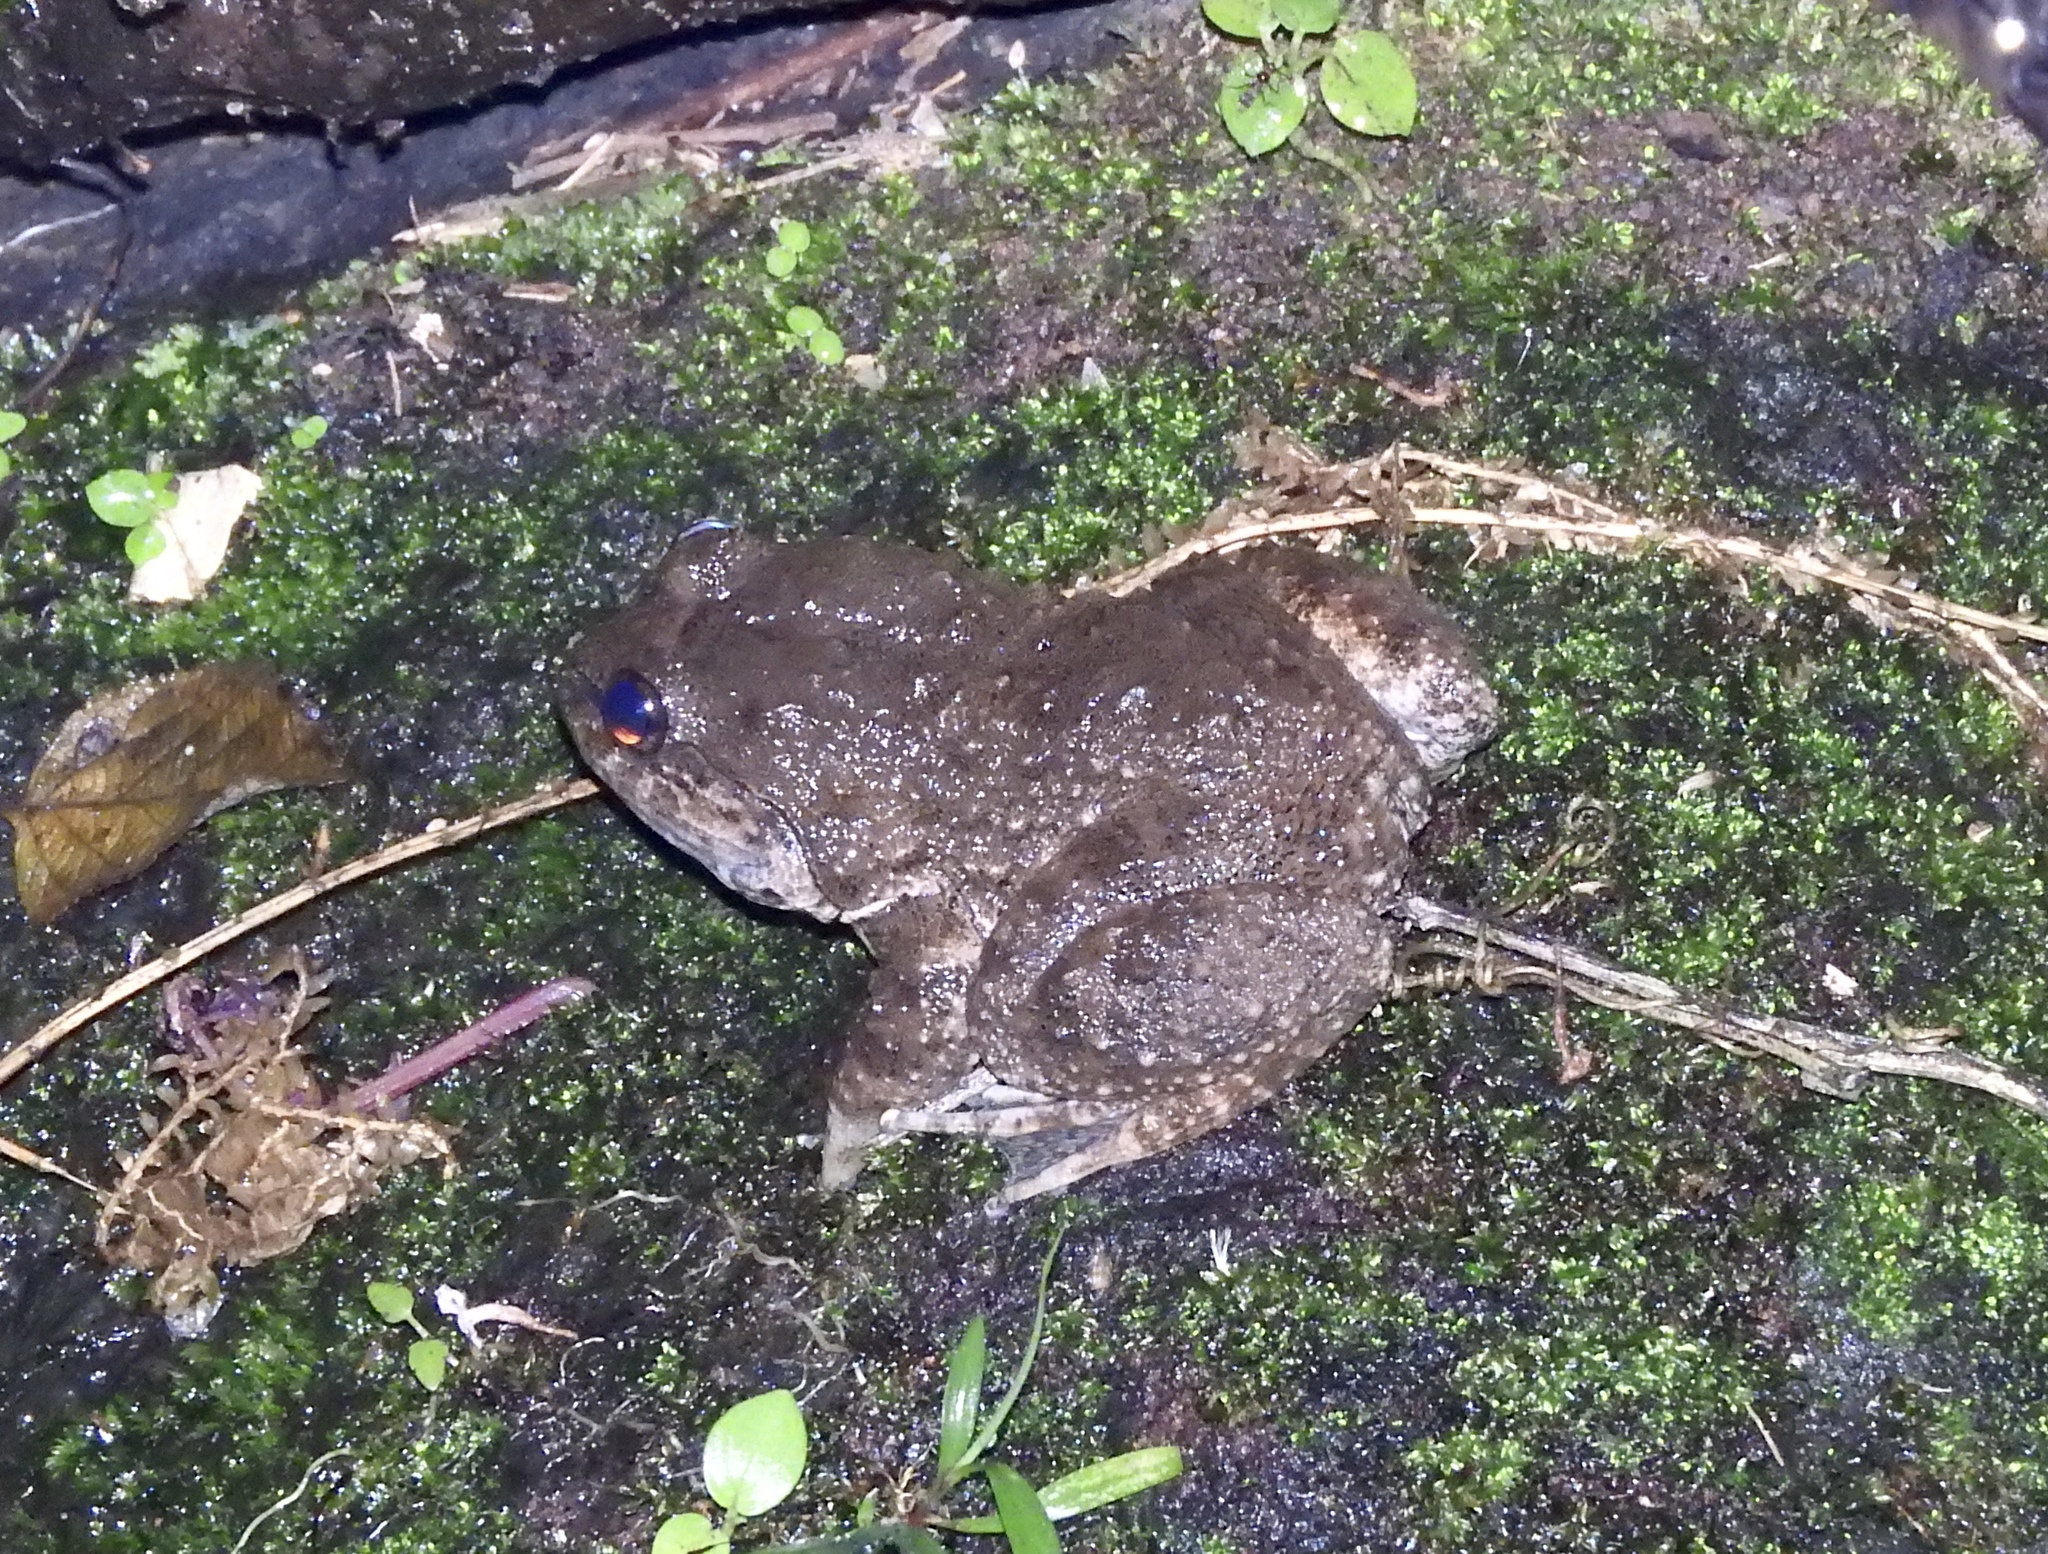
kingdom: Animalia
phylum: Chordata
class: Amphibia
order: Anura
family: Dicroglossidae
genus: Limnonectes
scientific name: Limnonectes kuhlii
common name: Kuhl’s stream frog/large-headed frog
